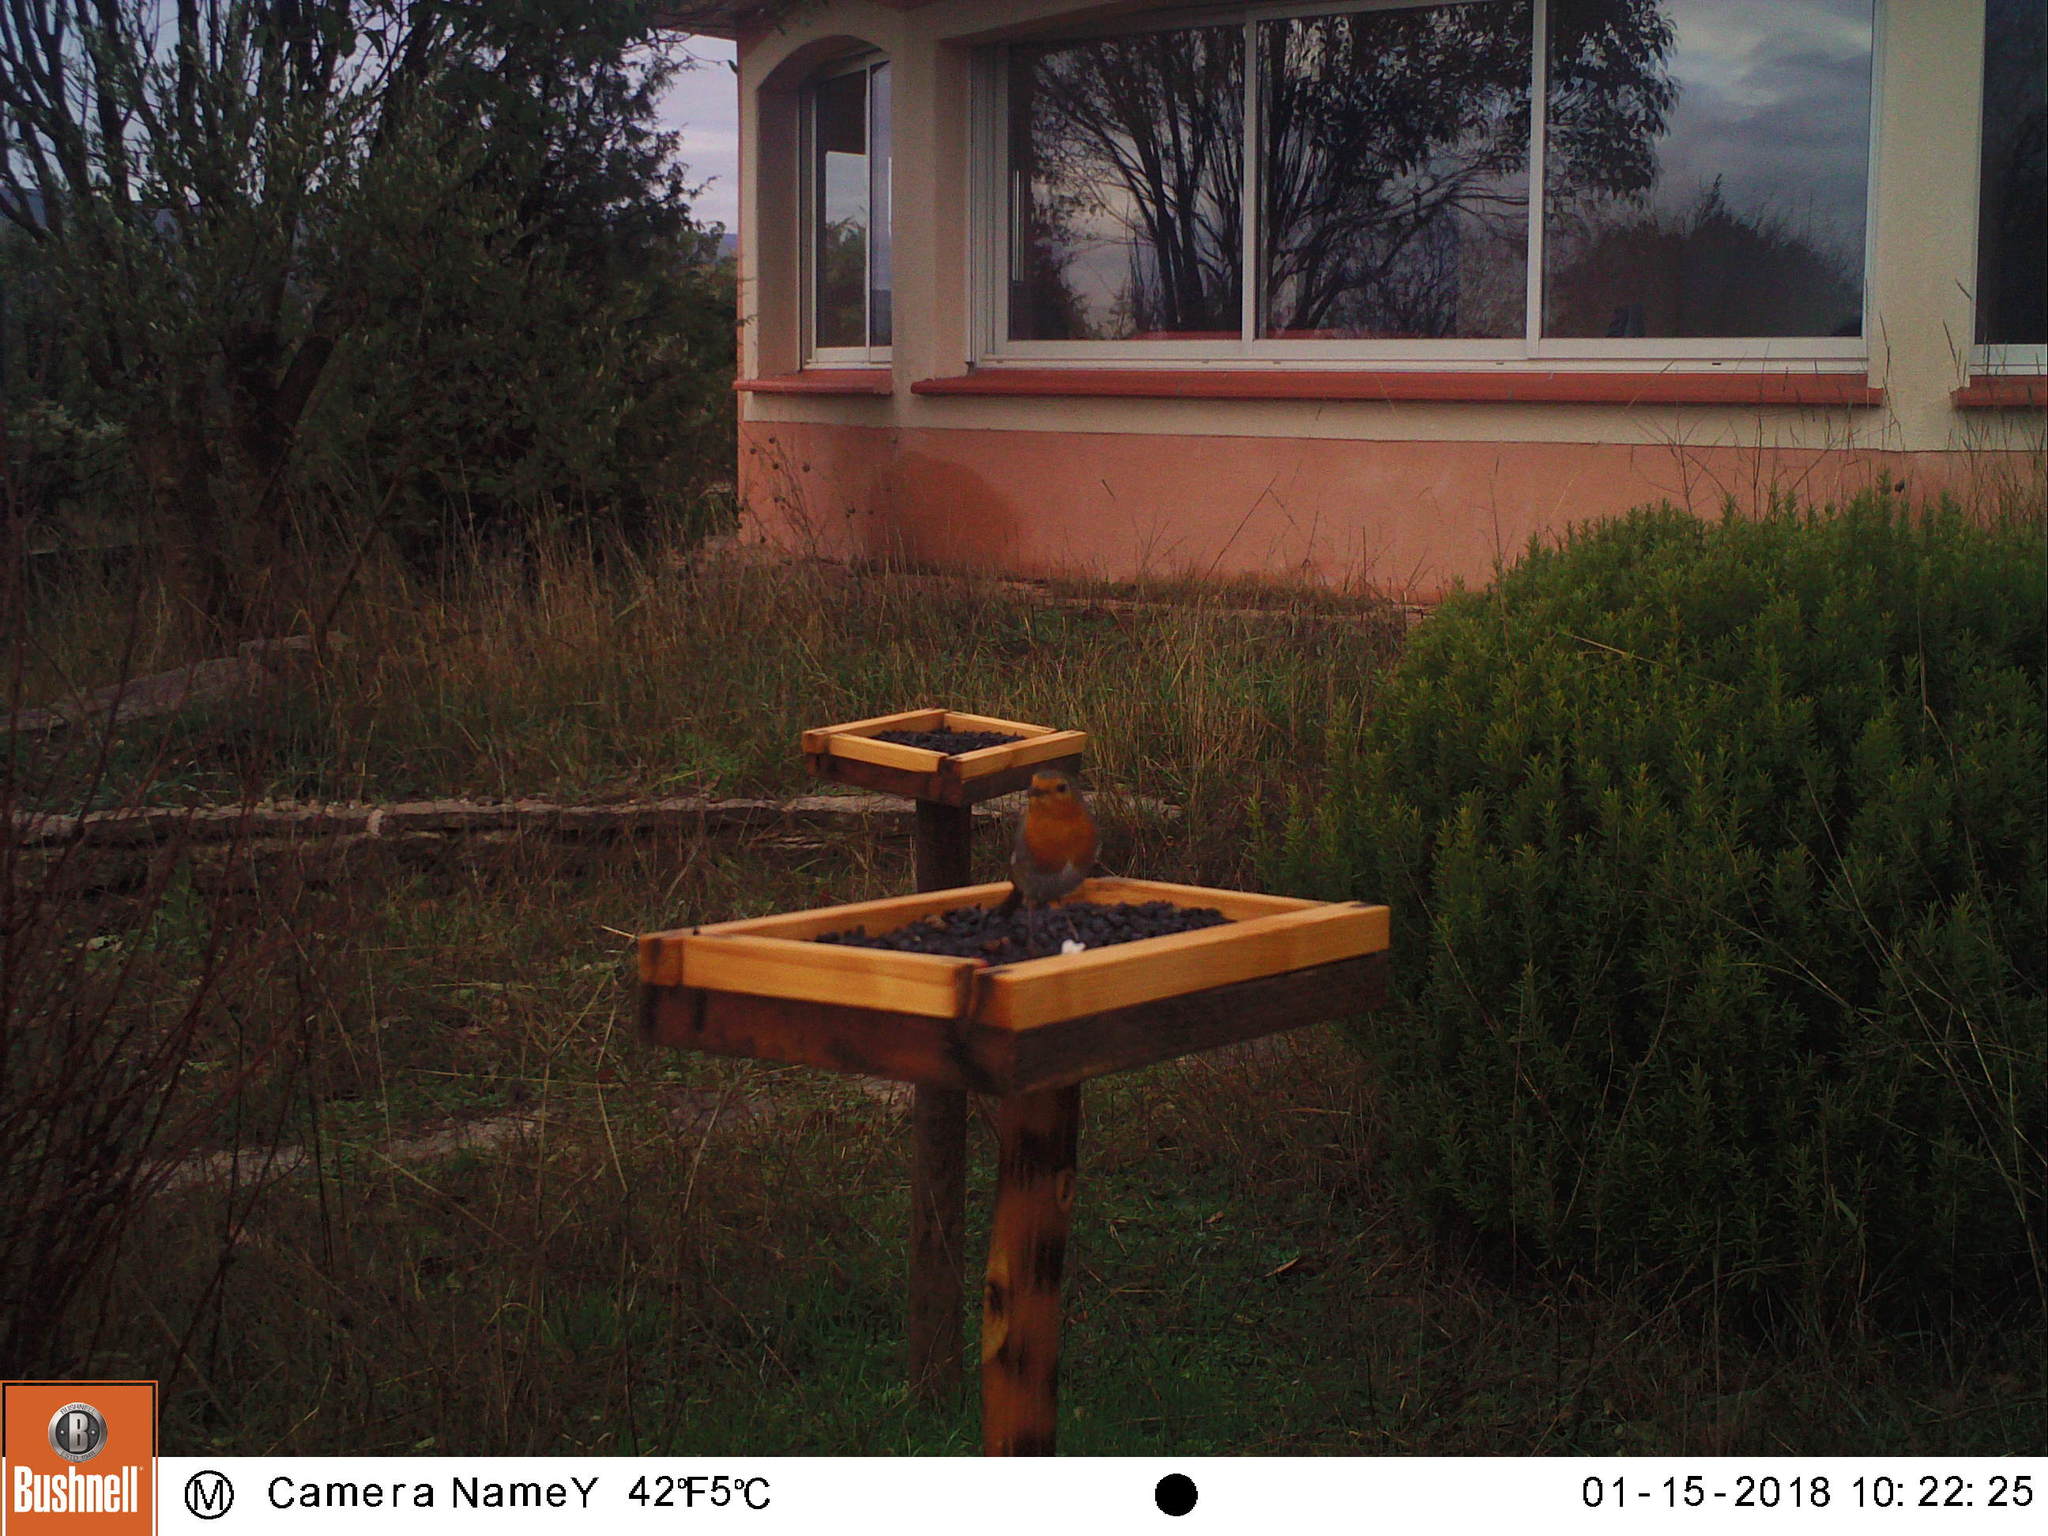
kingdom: Animalia
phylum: Chordata
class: Aves
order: Passeriformes
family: Muscicapidae
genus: Erithacus
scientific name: Erithacus rubecula
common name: European robin
